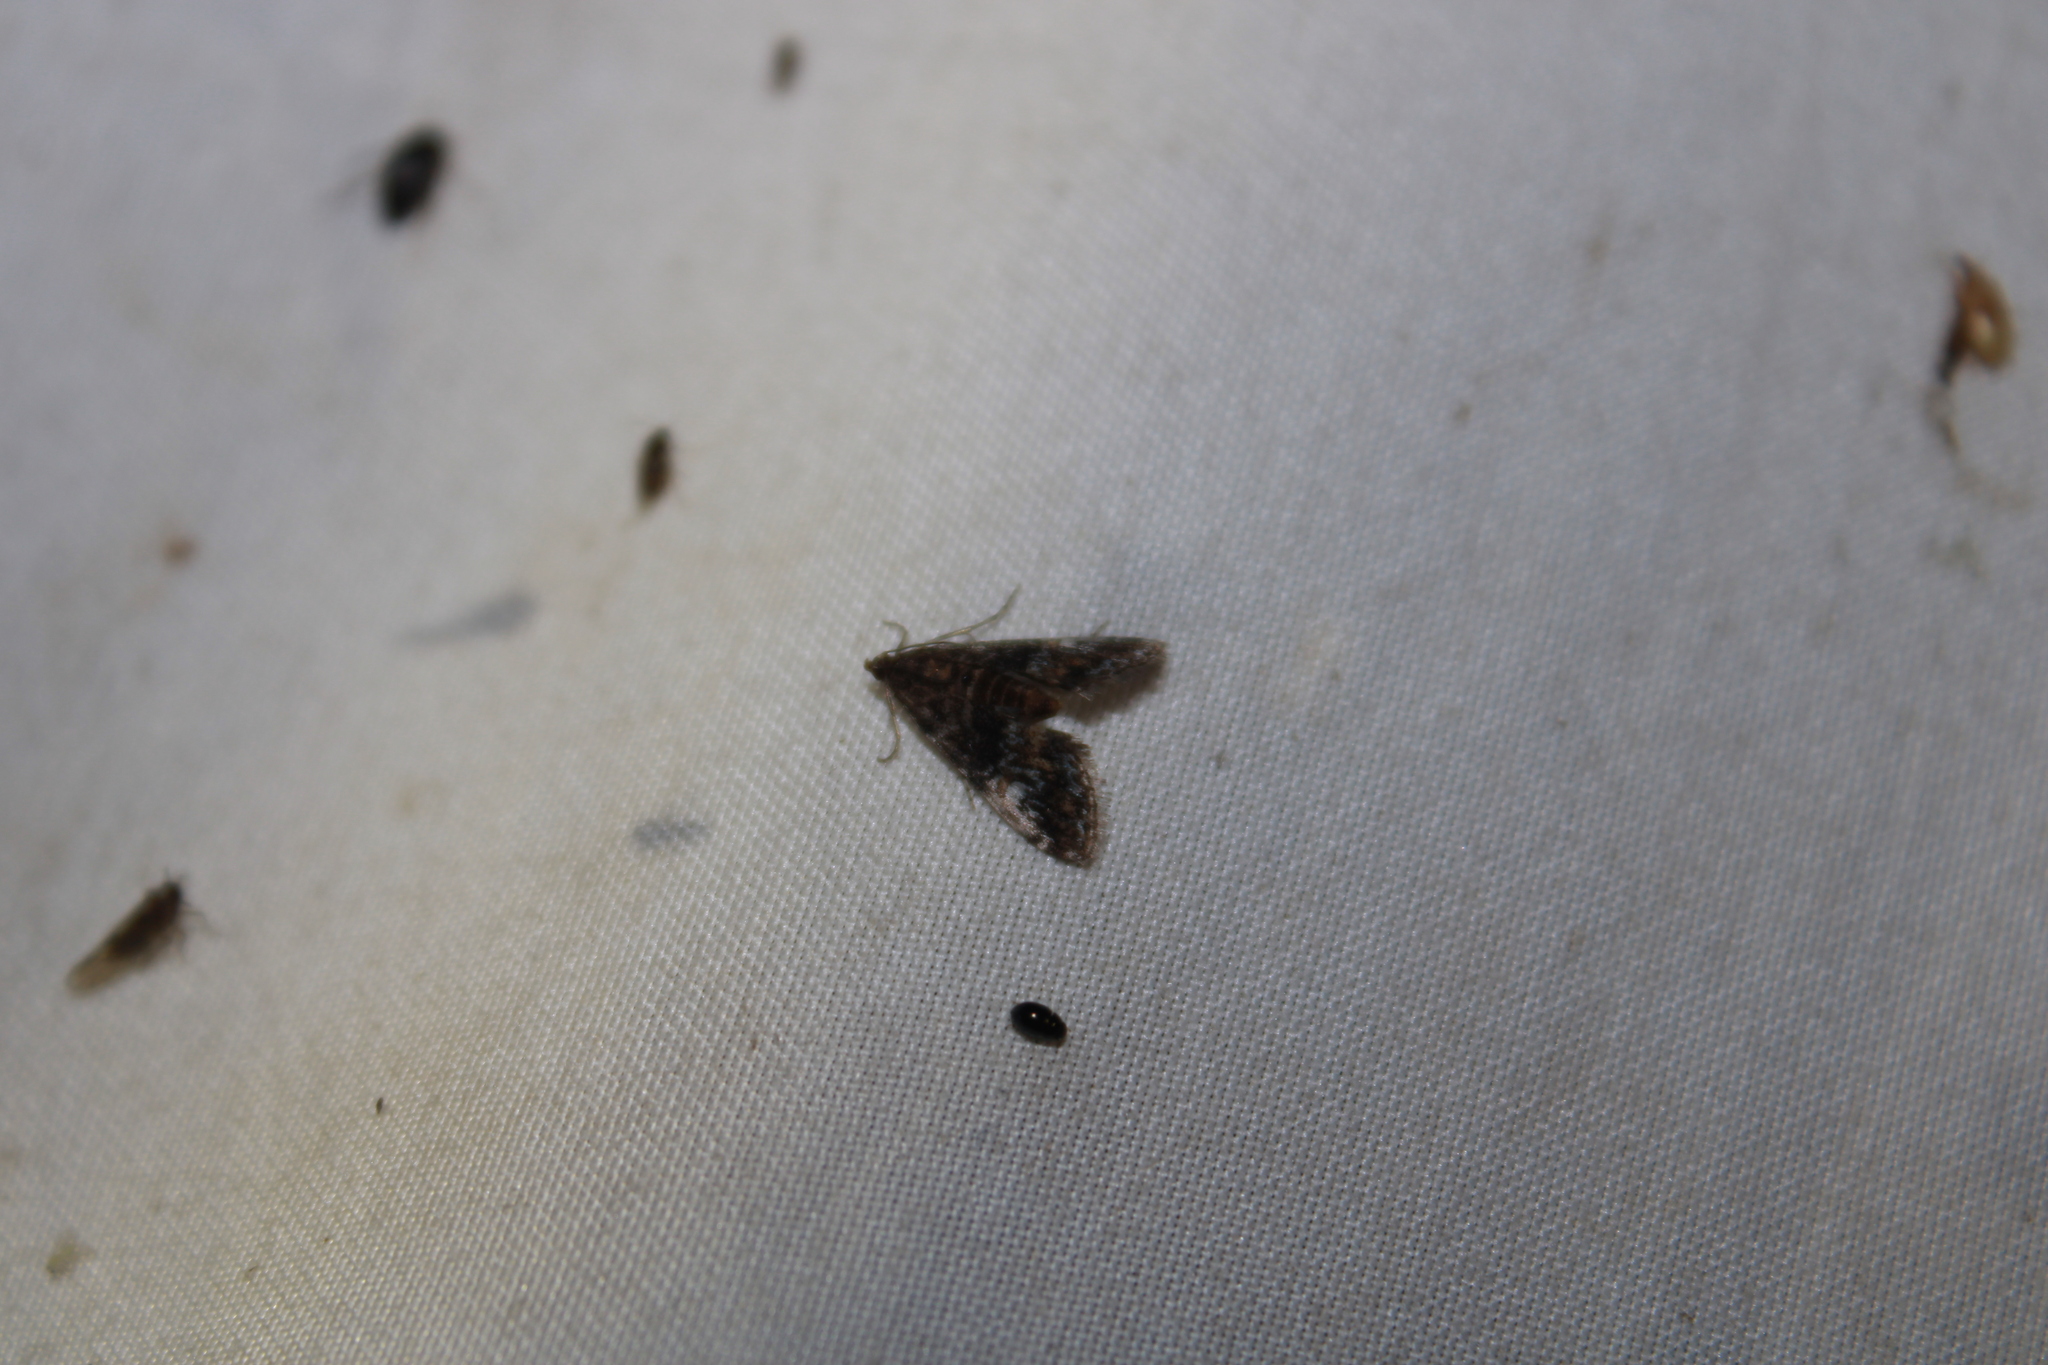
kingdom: Animalia
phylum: Arthropoda
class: Insecta
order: Lepidoptera
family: Crambidae
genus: Elophila
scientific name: Elophila obliteralis
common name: Waterlily leafcutter moth
